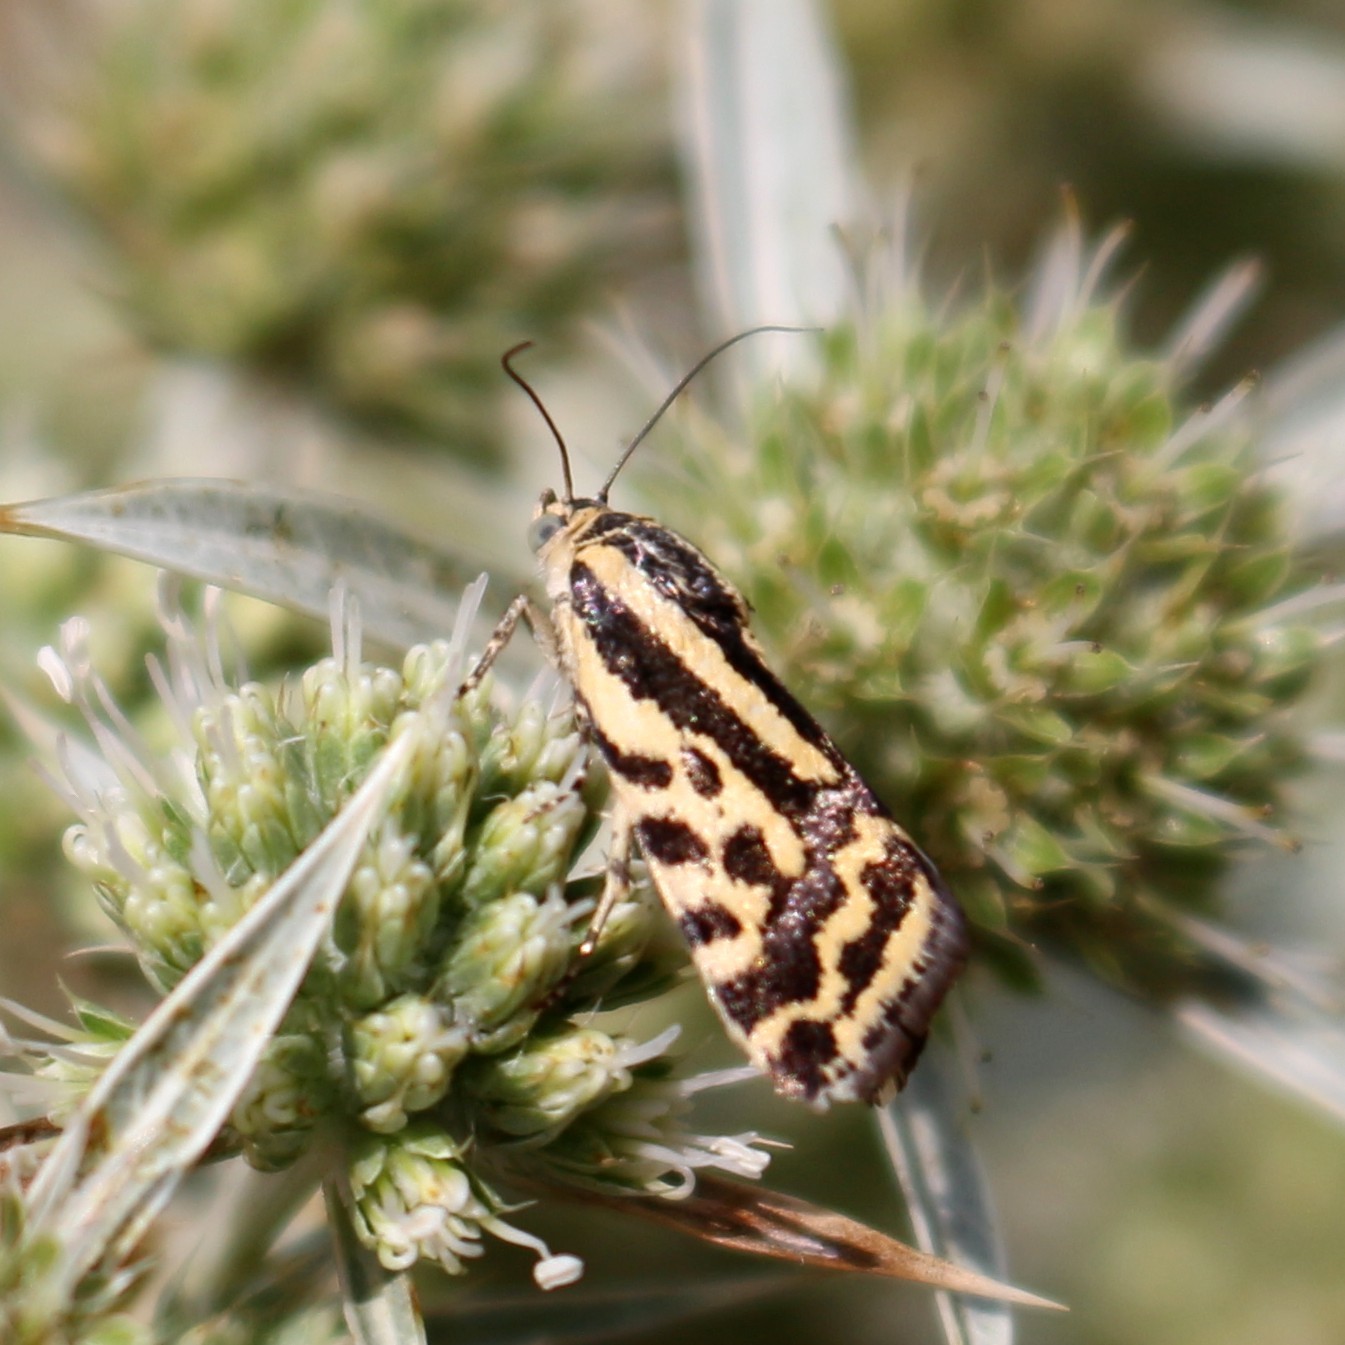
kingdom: Animalia
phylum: Arthropoda
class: Insecta
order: Lepidoptera
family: Noctuidae
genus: Acontia
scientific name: Acontia trabealis
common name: Spotted sulphur
